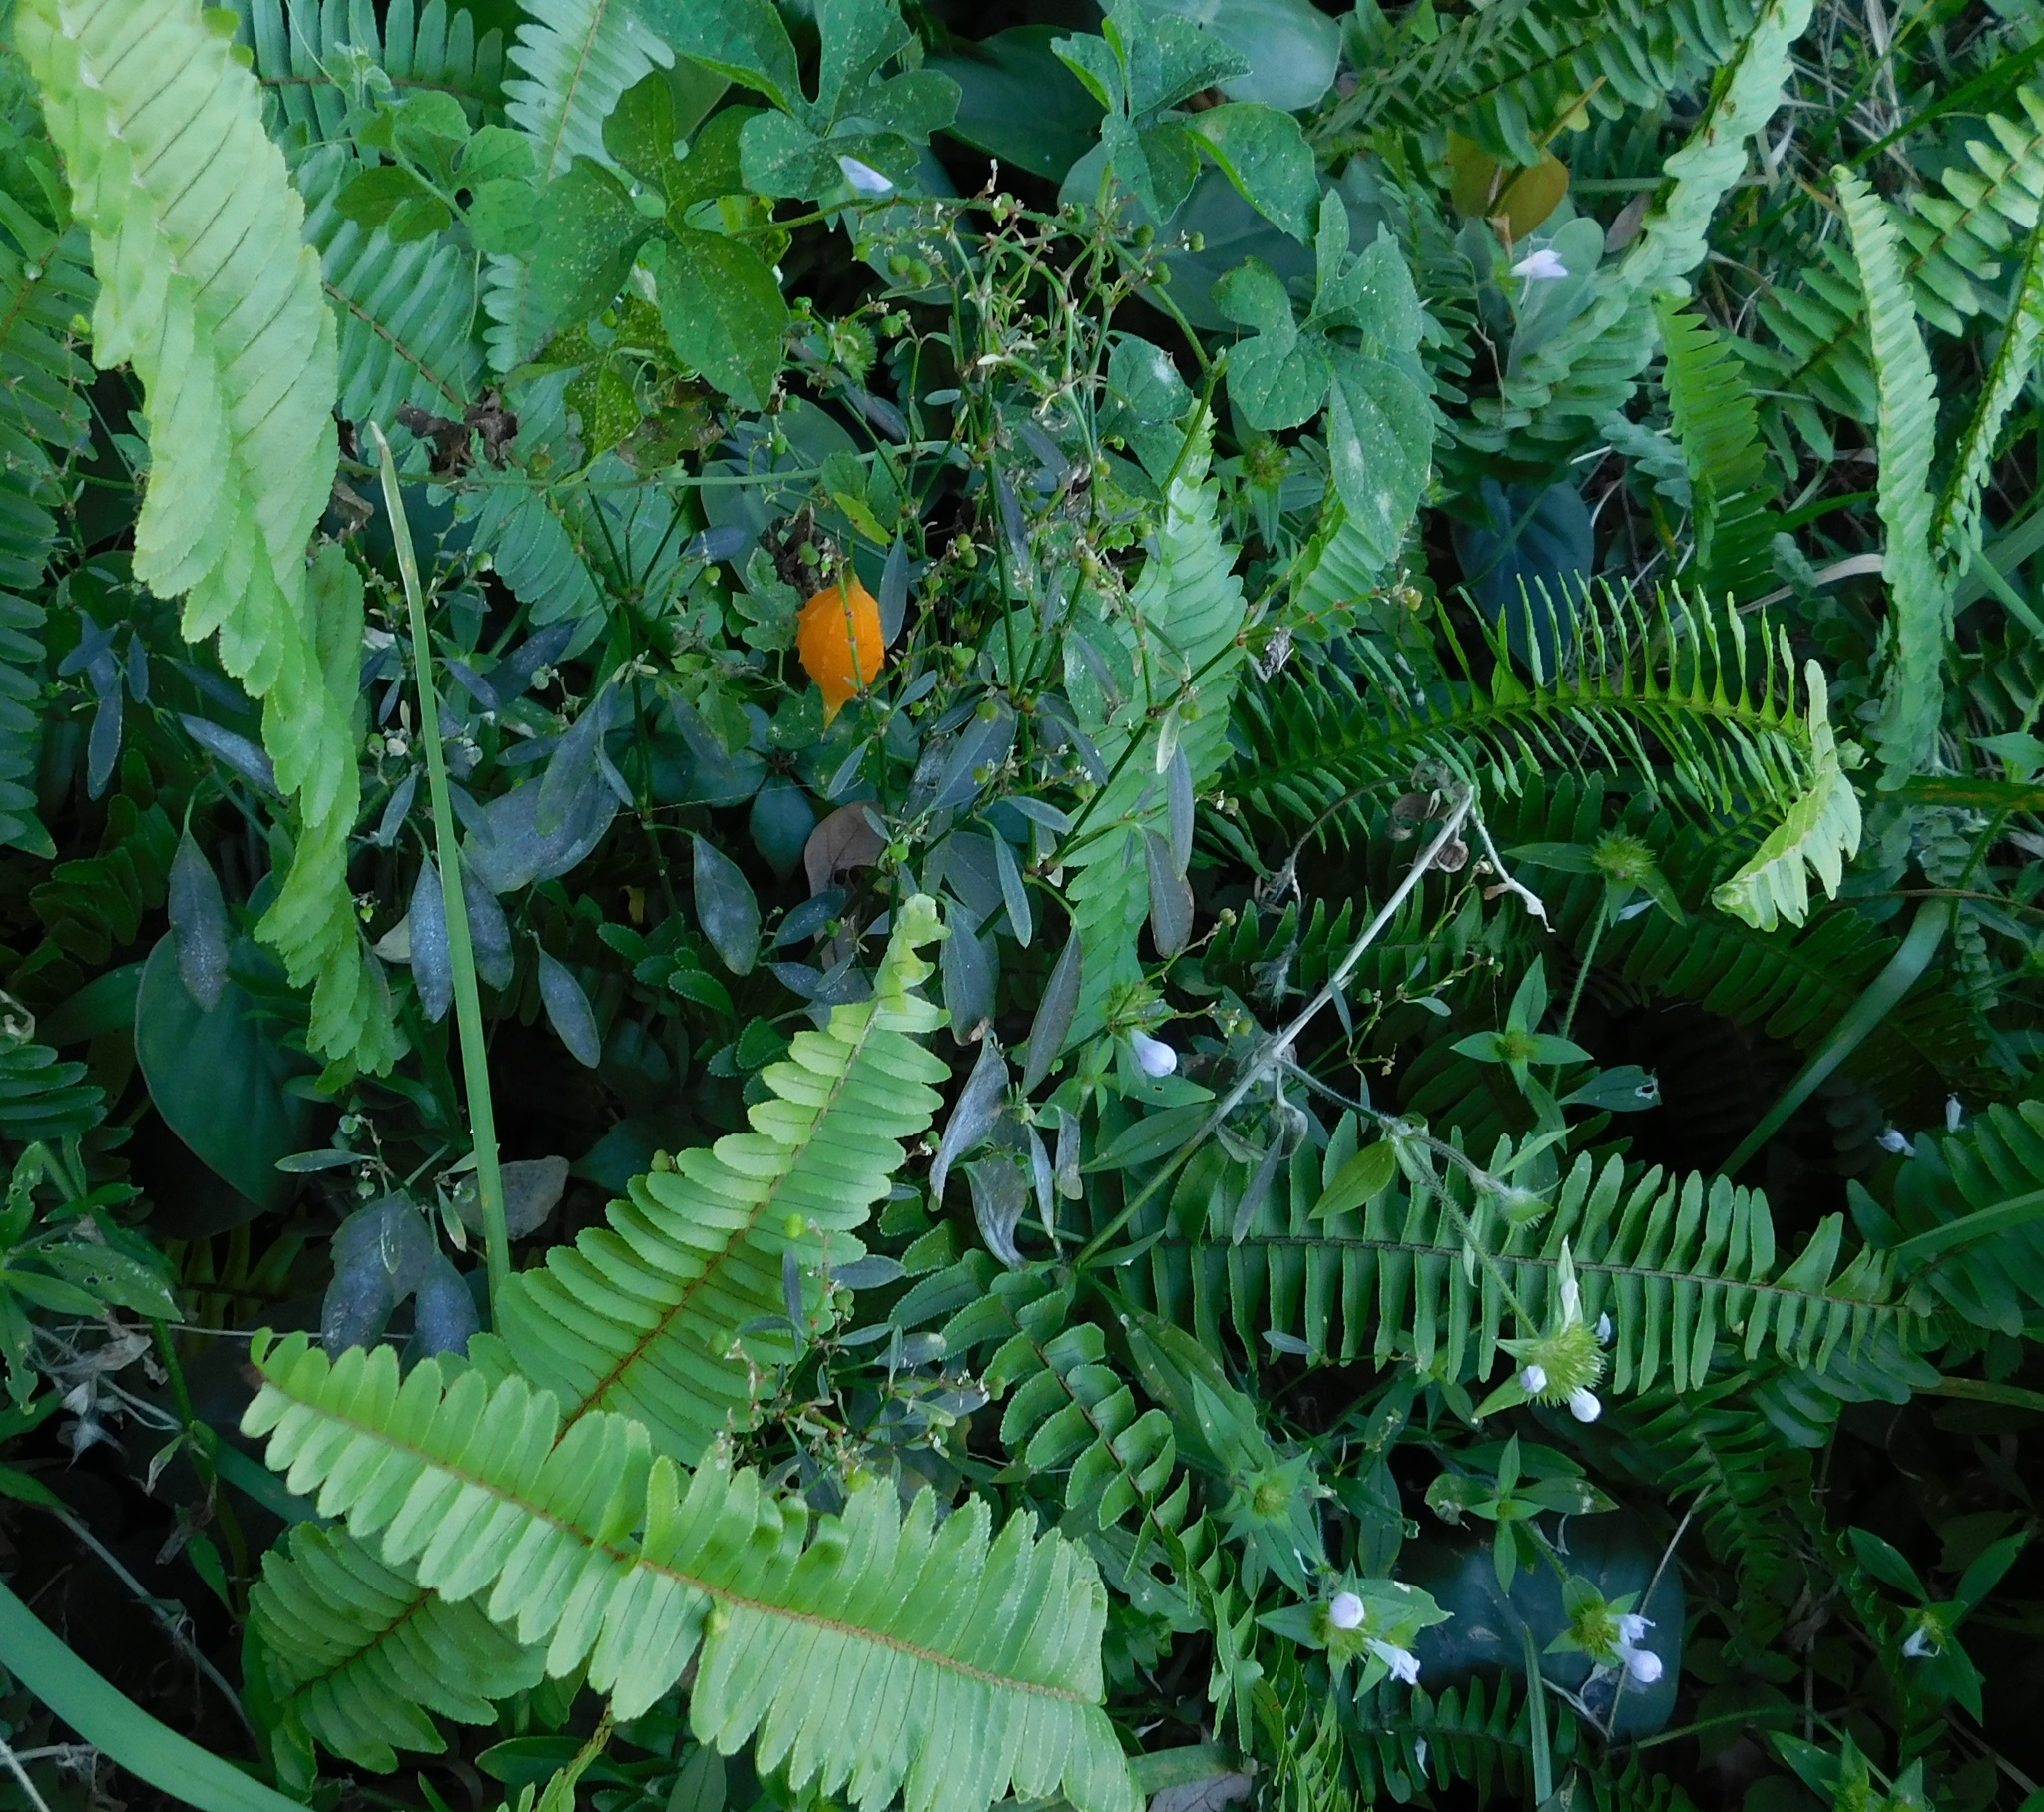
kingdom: Plantae
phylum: Tracheophyta
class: Magnoliopsida
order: Cucurbitales
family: Cucurbitaceae
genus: Momordica
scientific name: Momordica charantia
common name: Balsampear
